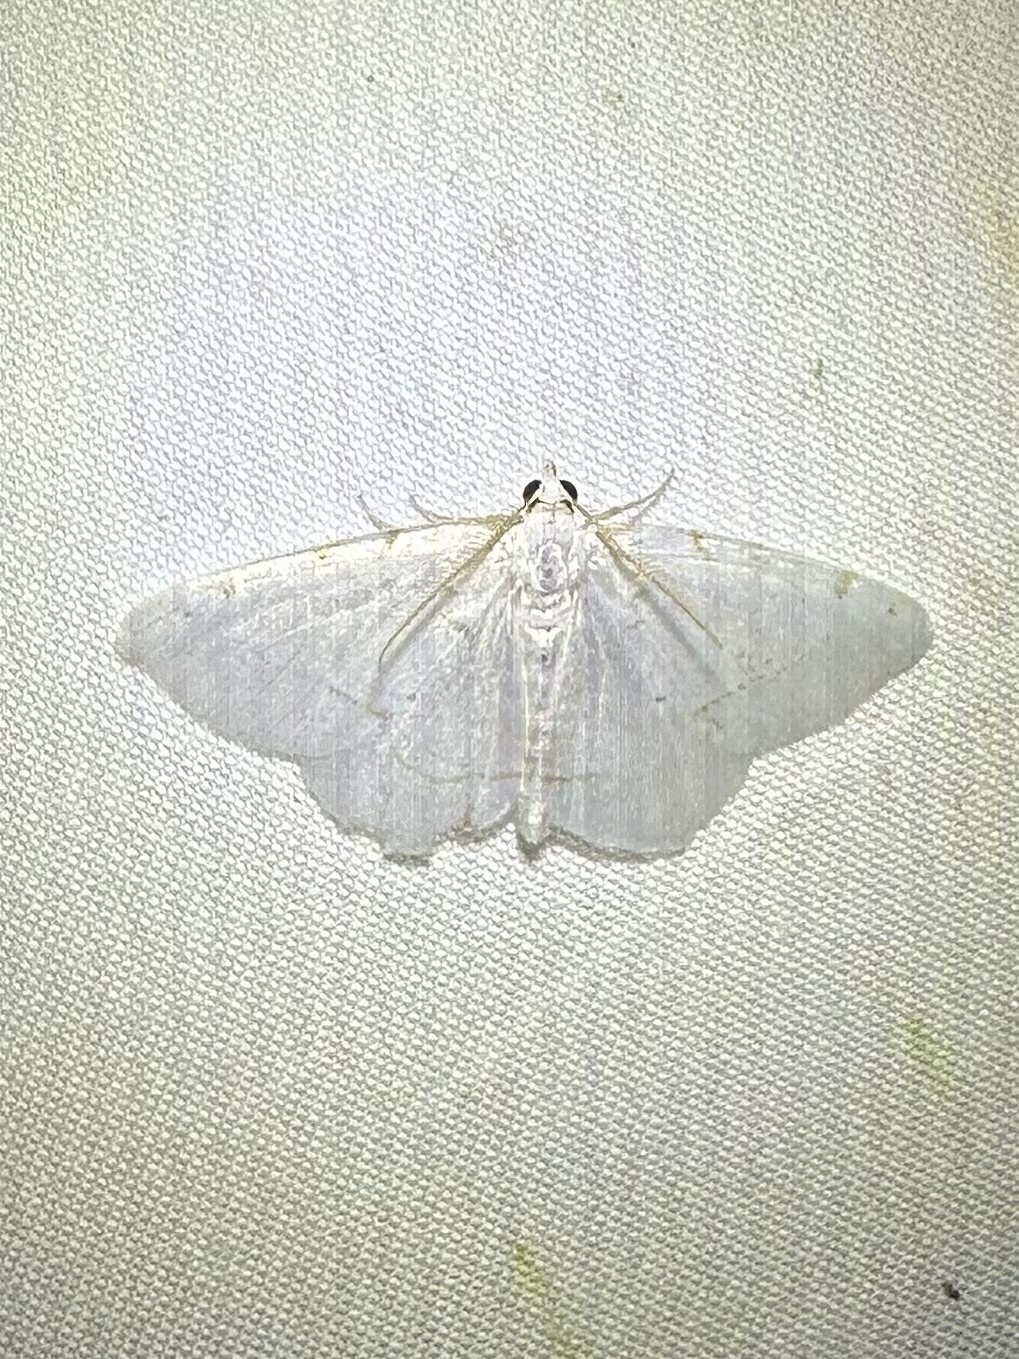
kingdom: Animalia
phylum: Arthropoda
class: Insecta
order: Lepidoptera
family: Geometridae
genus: Macaria
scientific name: Macaria pustularia
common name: Lesser maple spanworm moth
